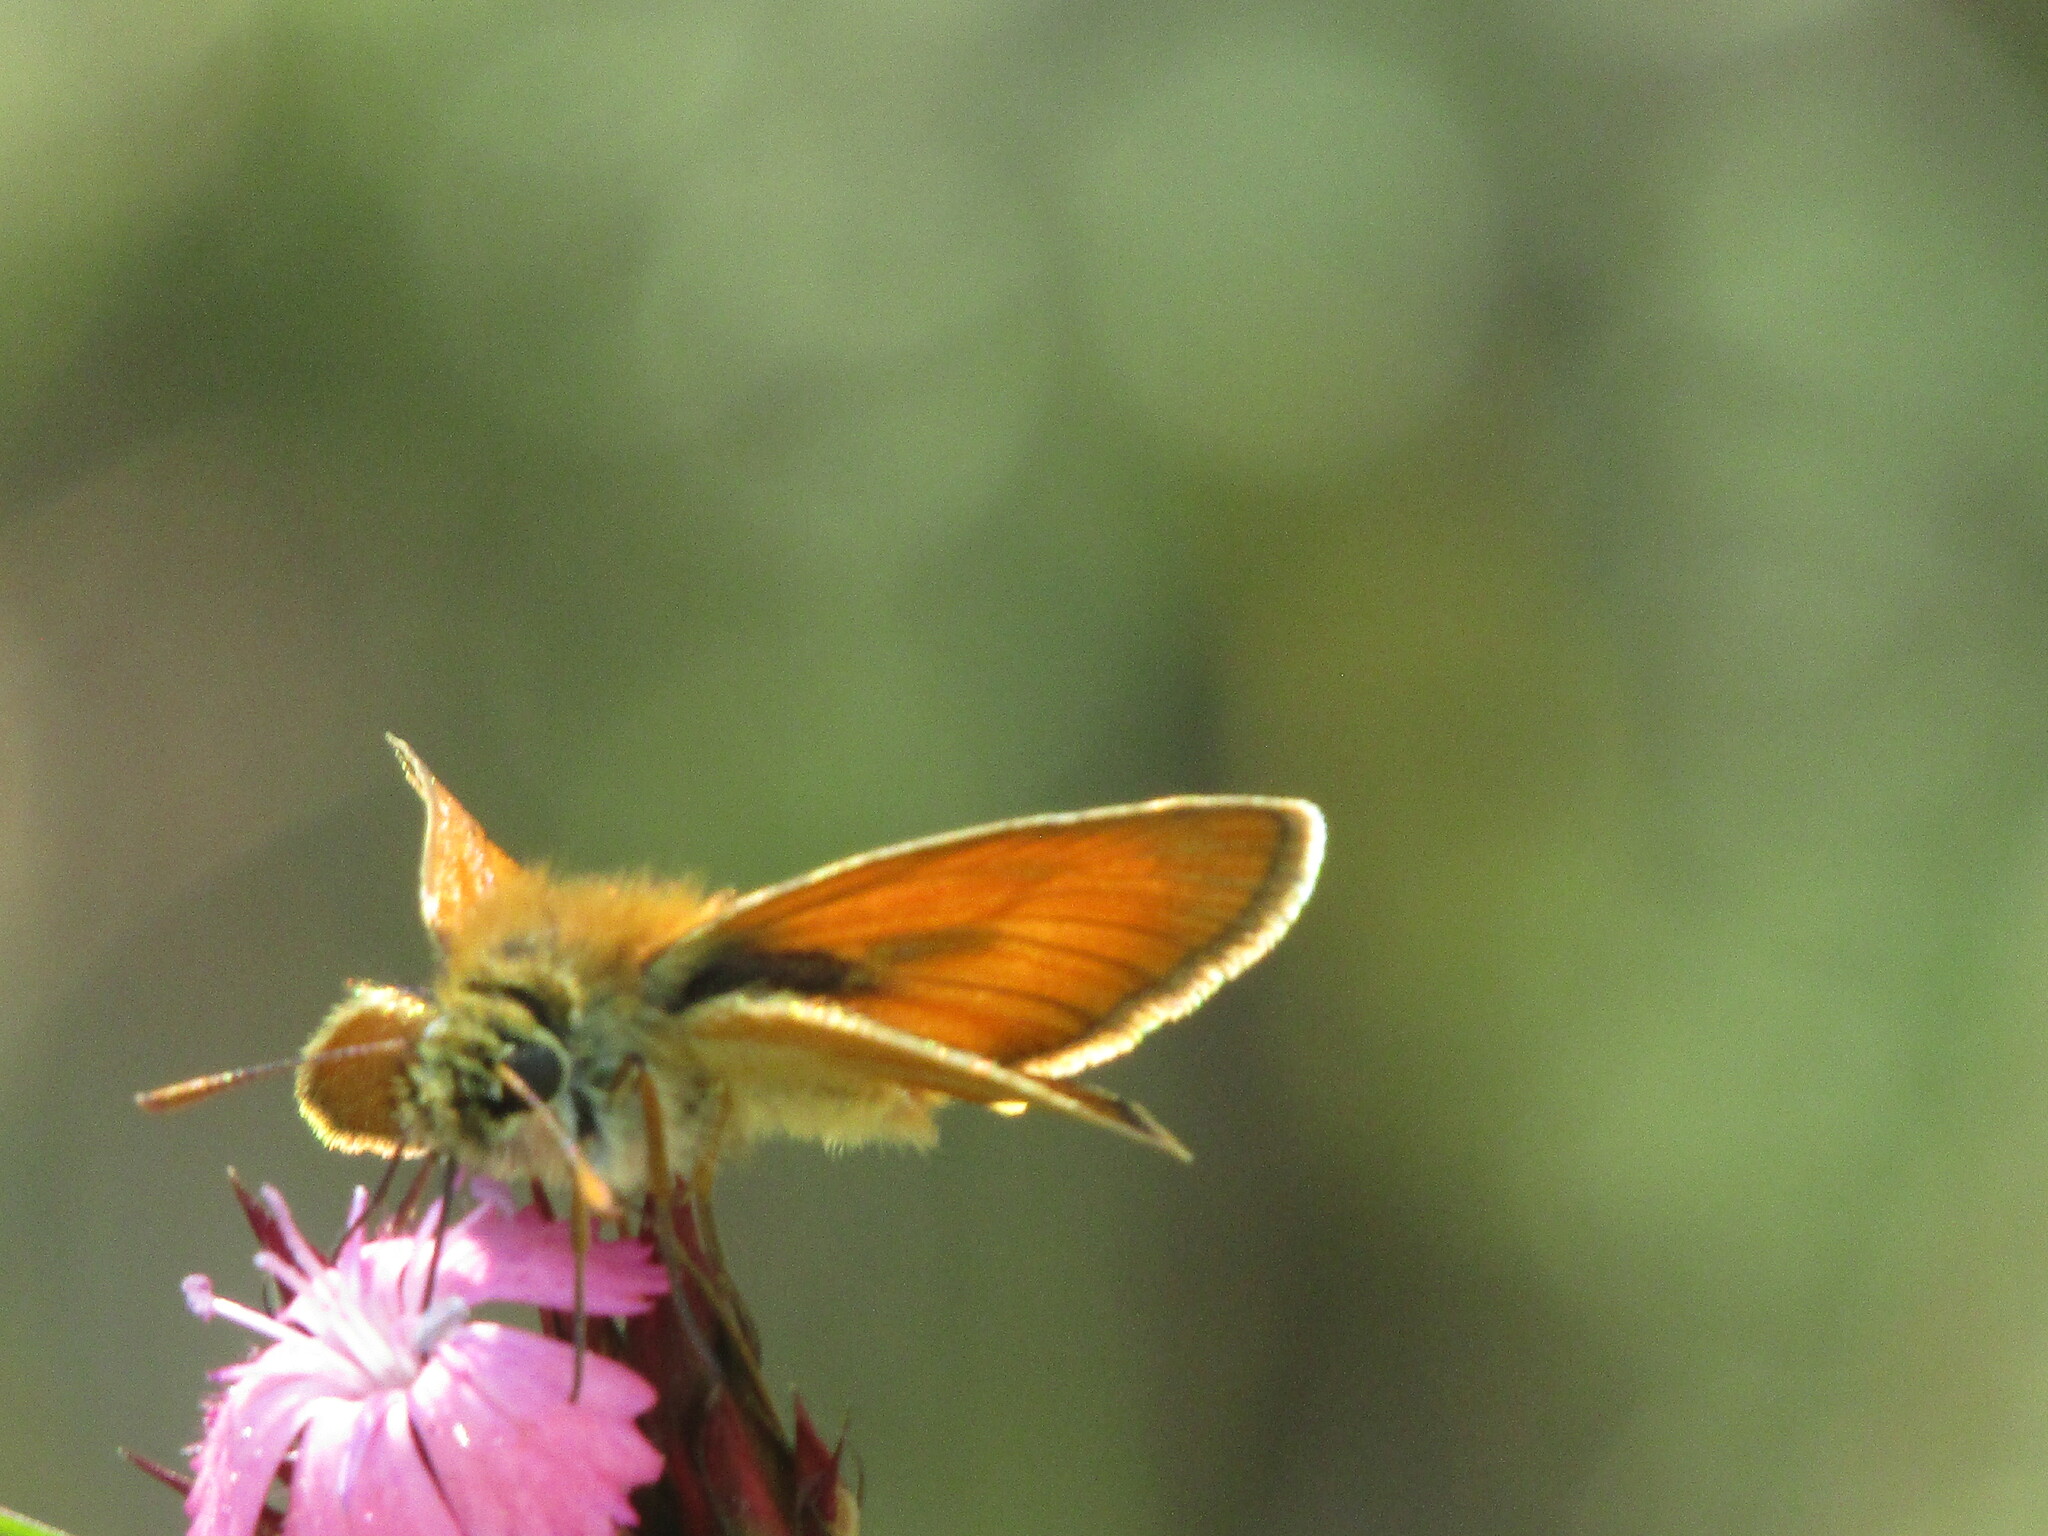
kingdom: Animalia
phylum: Arthropoda
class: Insecta
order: Lepidoptera
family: Hesperiidae
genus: Thymelicus
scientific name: Thymelicus sylvestris
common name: Small skipper
